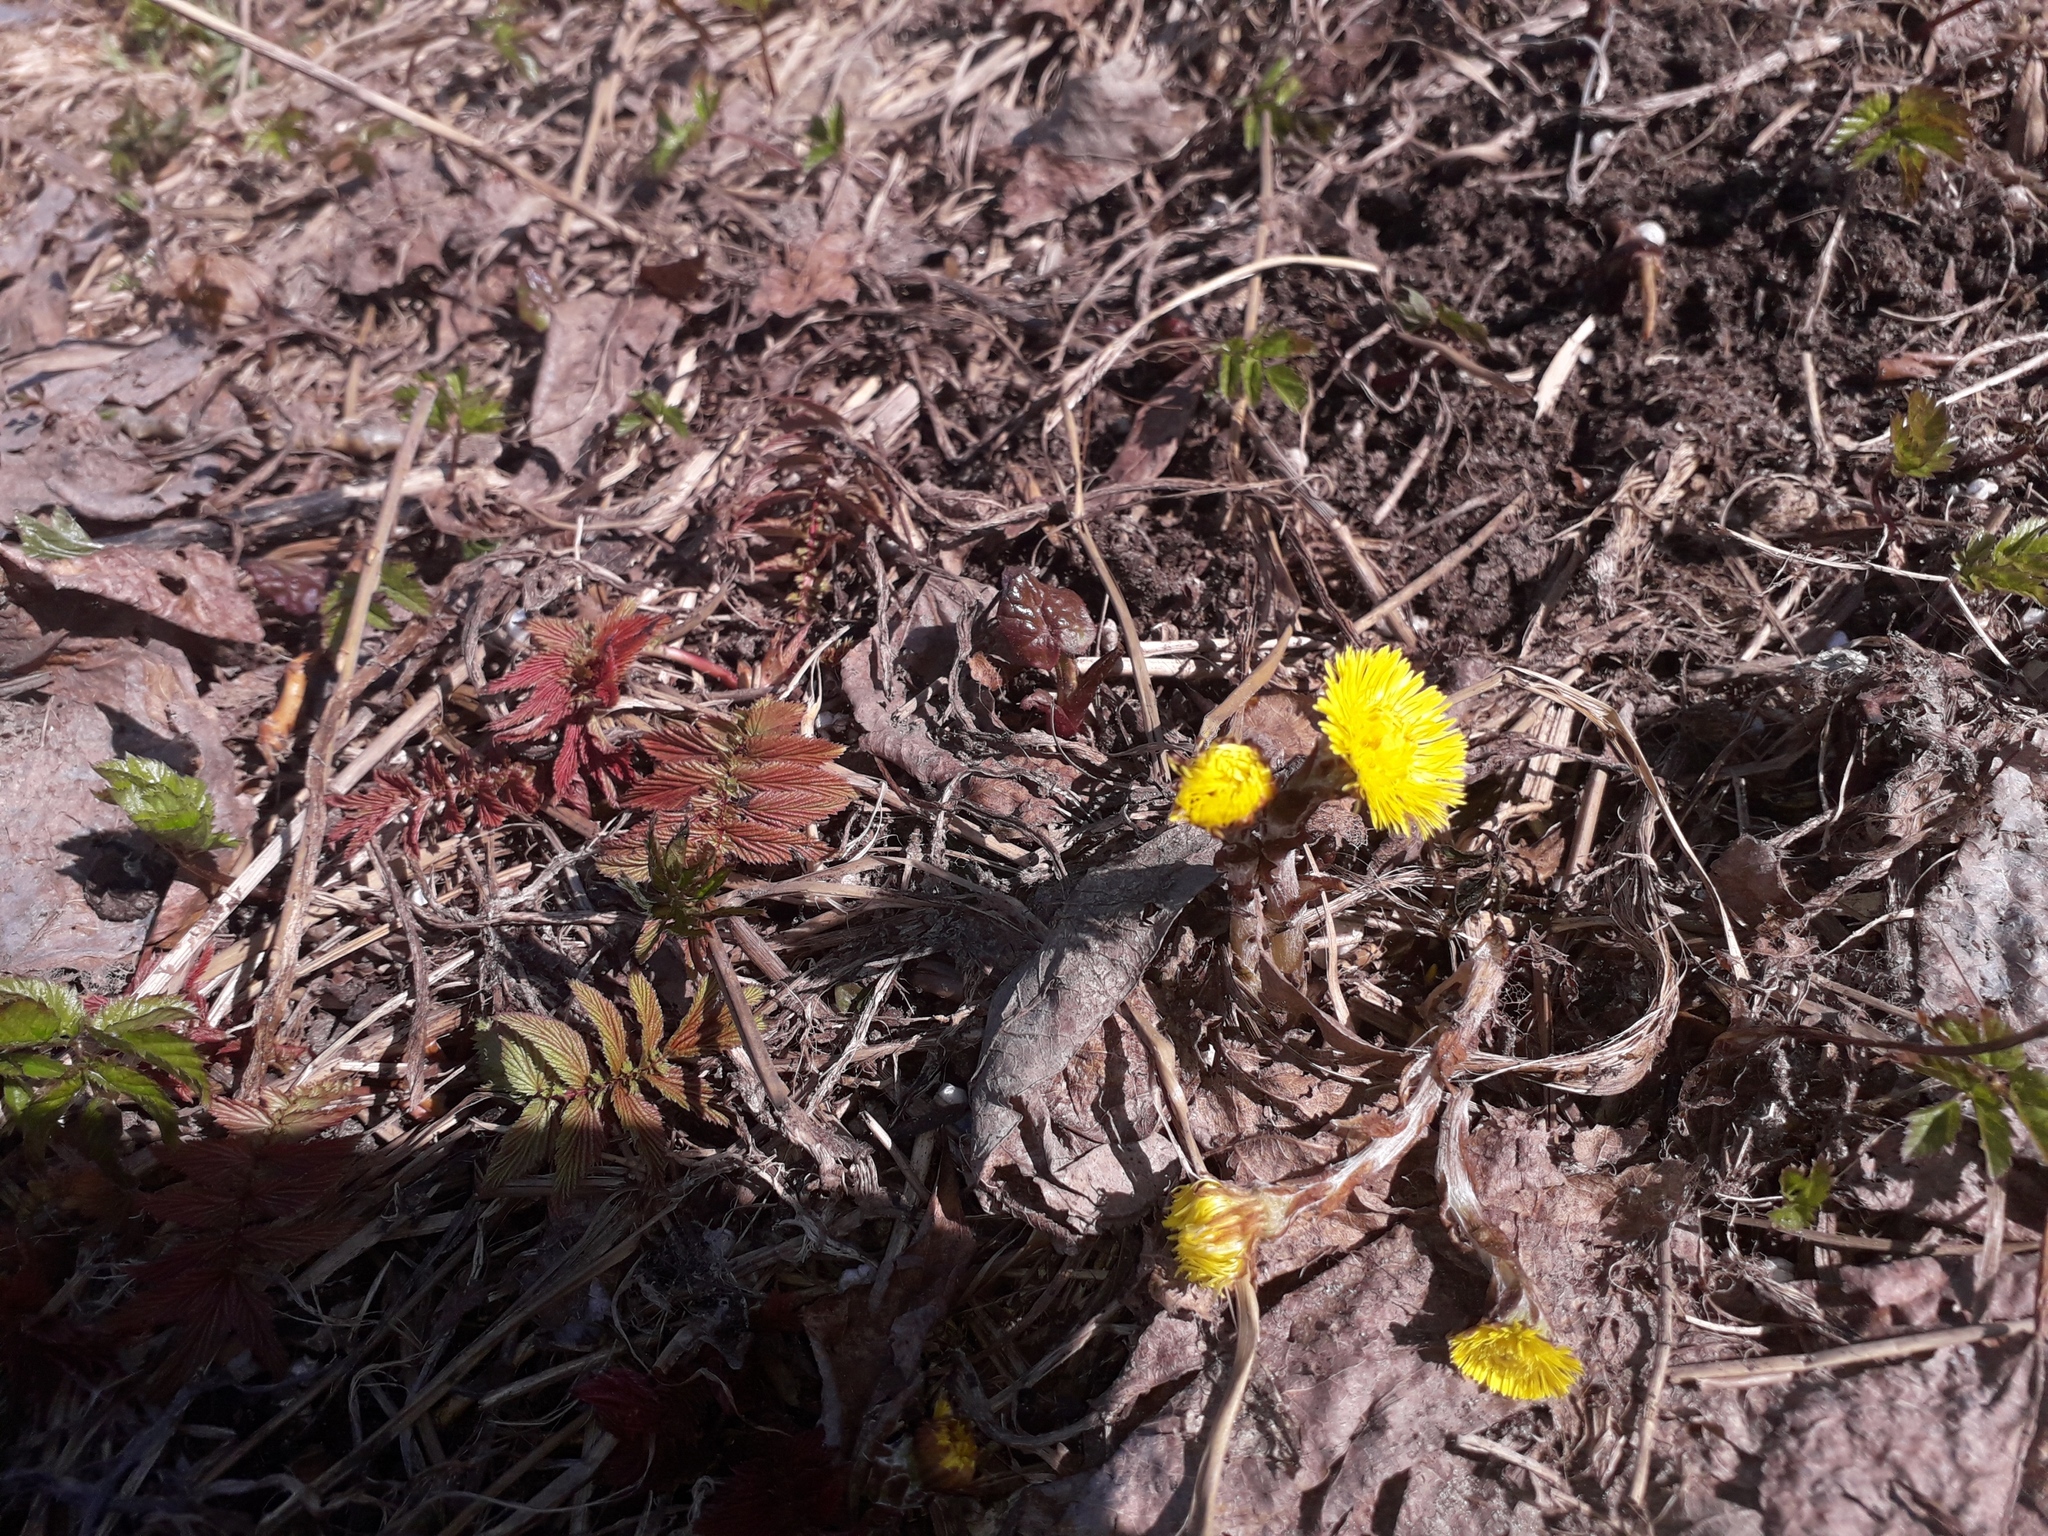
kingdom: Plantae
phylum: Tracheophyta
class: Magnoliopsida
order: Asterales
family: Asteraceae
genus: Tussilago
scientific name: Tussilago farfara
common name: Coltsfoot
